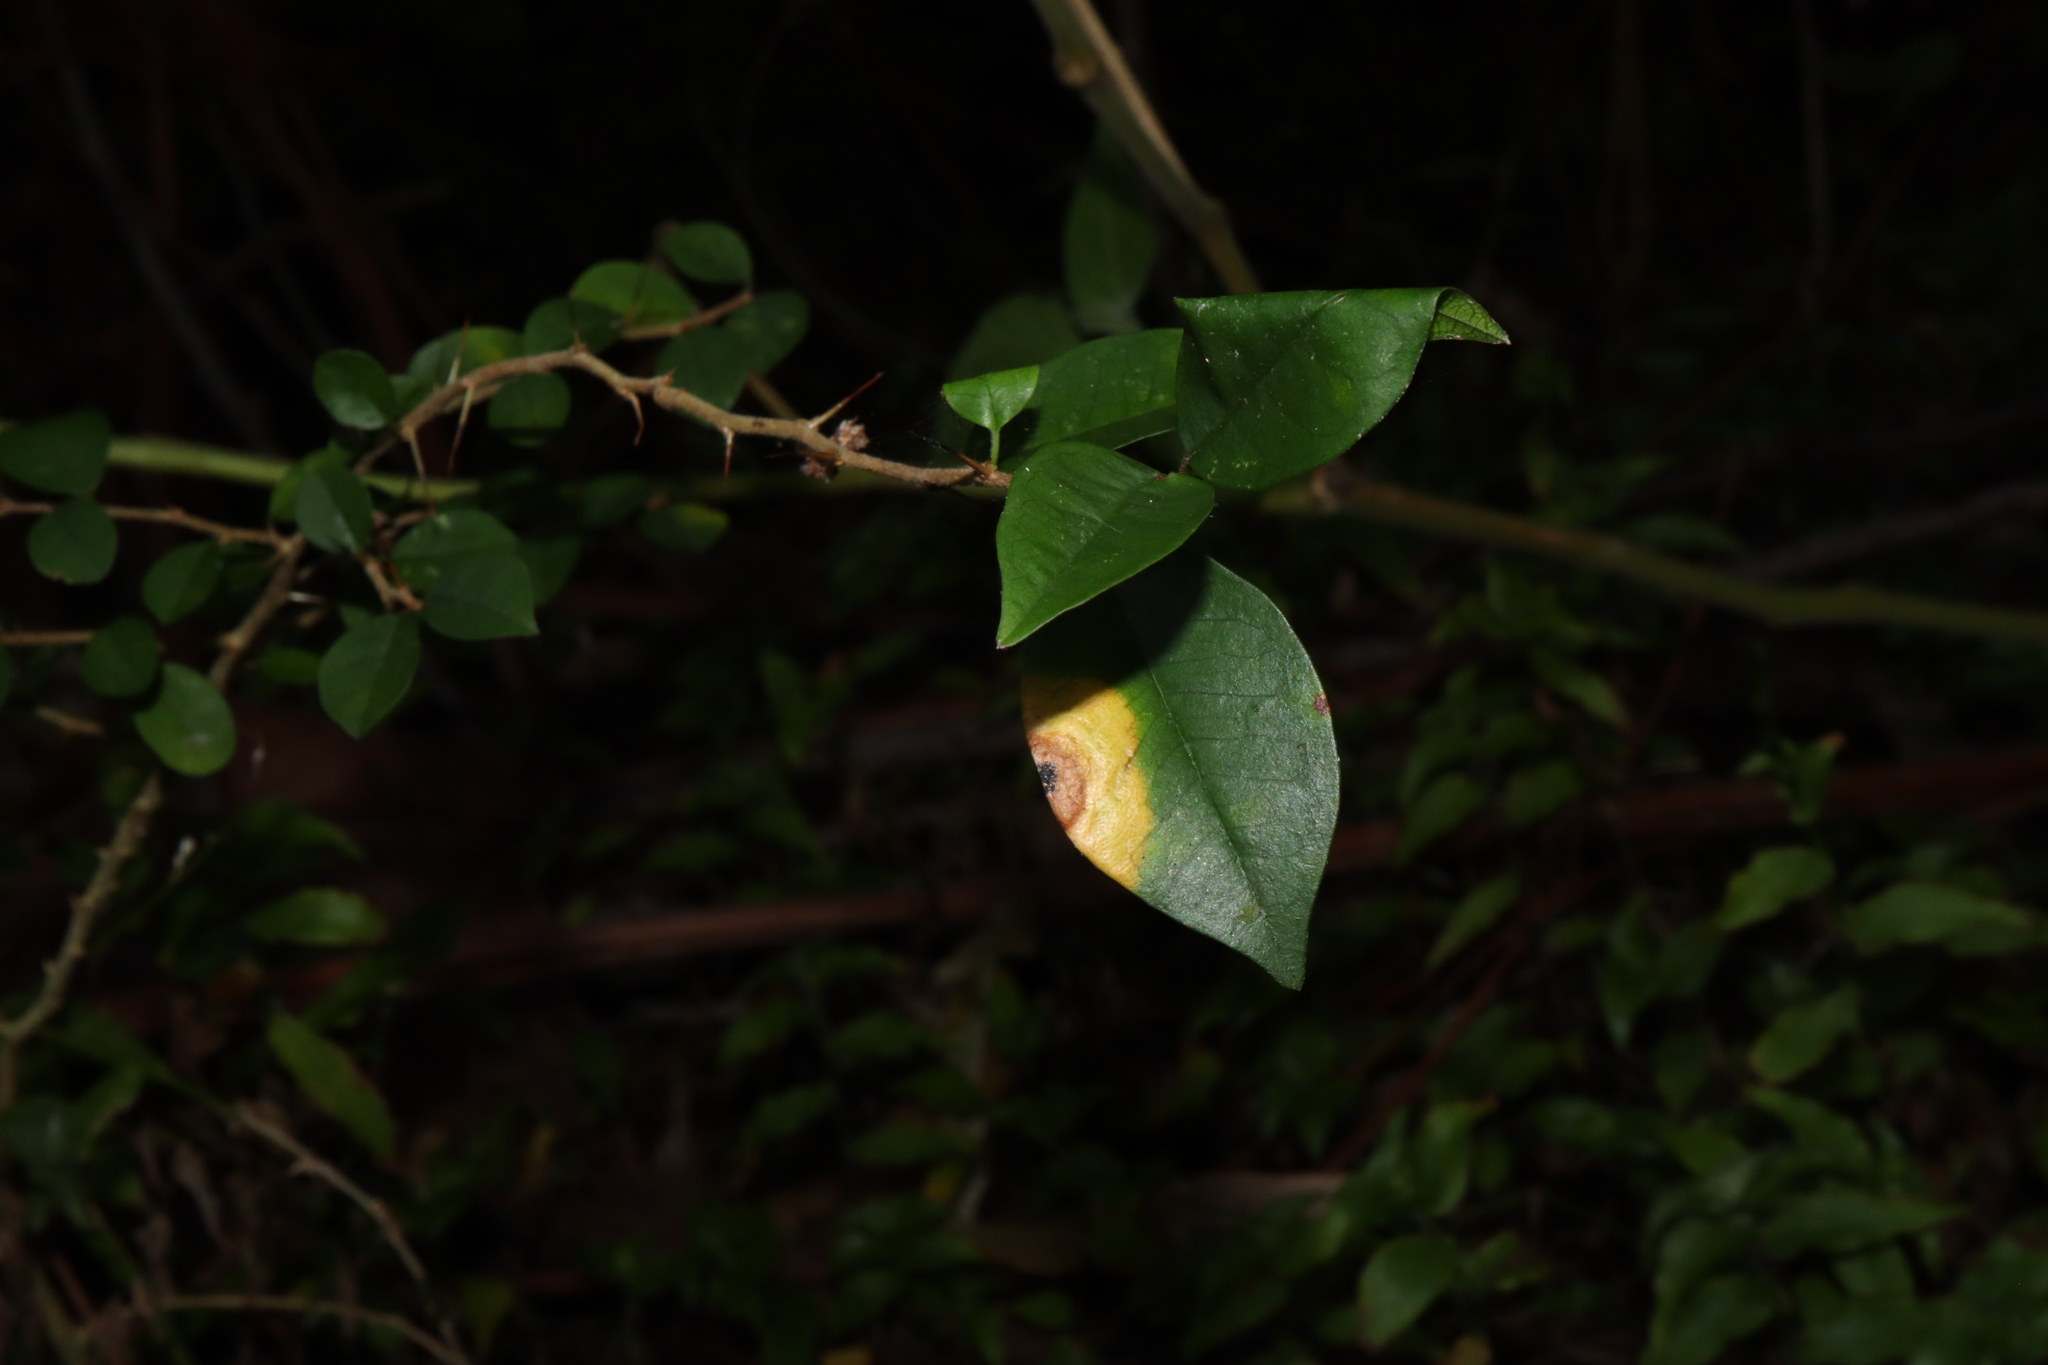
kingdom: Fungi
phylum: Ascomycota
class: Dothideomycetes
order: Mycosphaerellales
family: Mycosphaerellaceae
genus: Zasmidium
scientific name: Zasmidium macluricola
